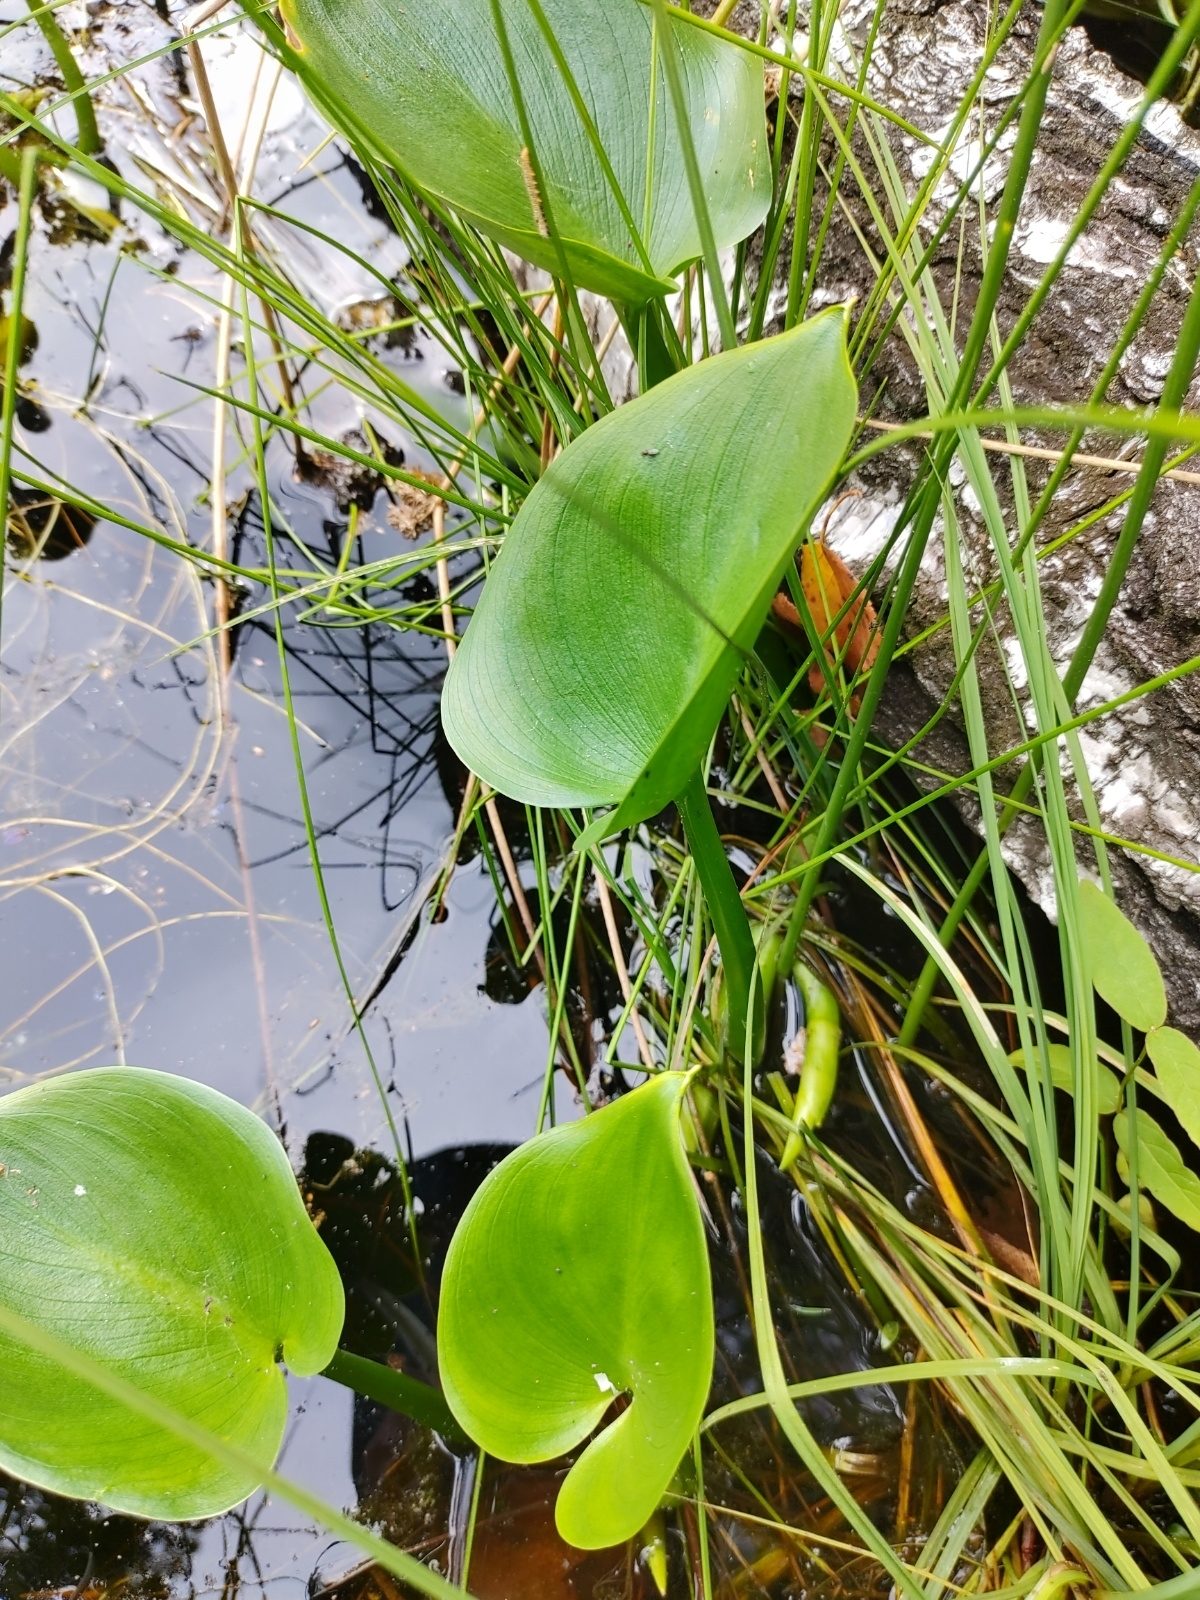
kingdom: Plantae
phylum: Tracheophyta
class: Liliopsida
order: Alismatales
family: Araceae
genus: Calla
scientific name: Calla palustris
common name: Bog arum
